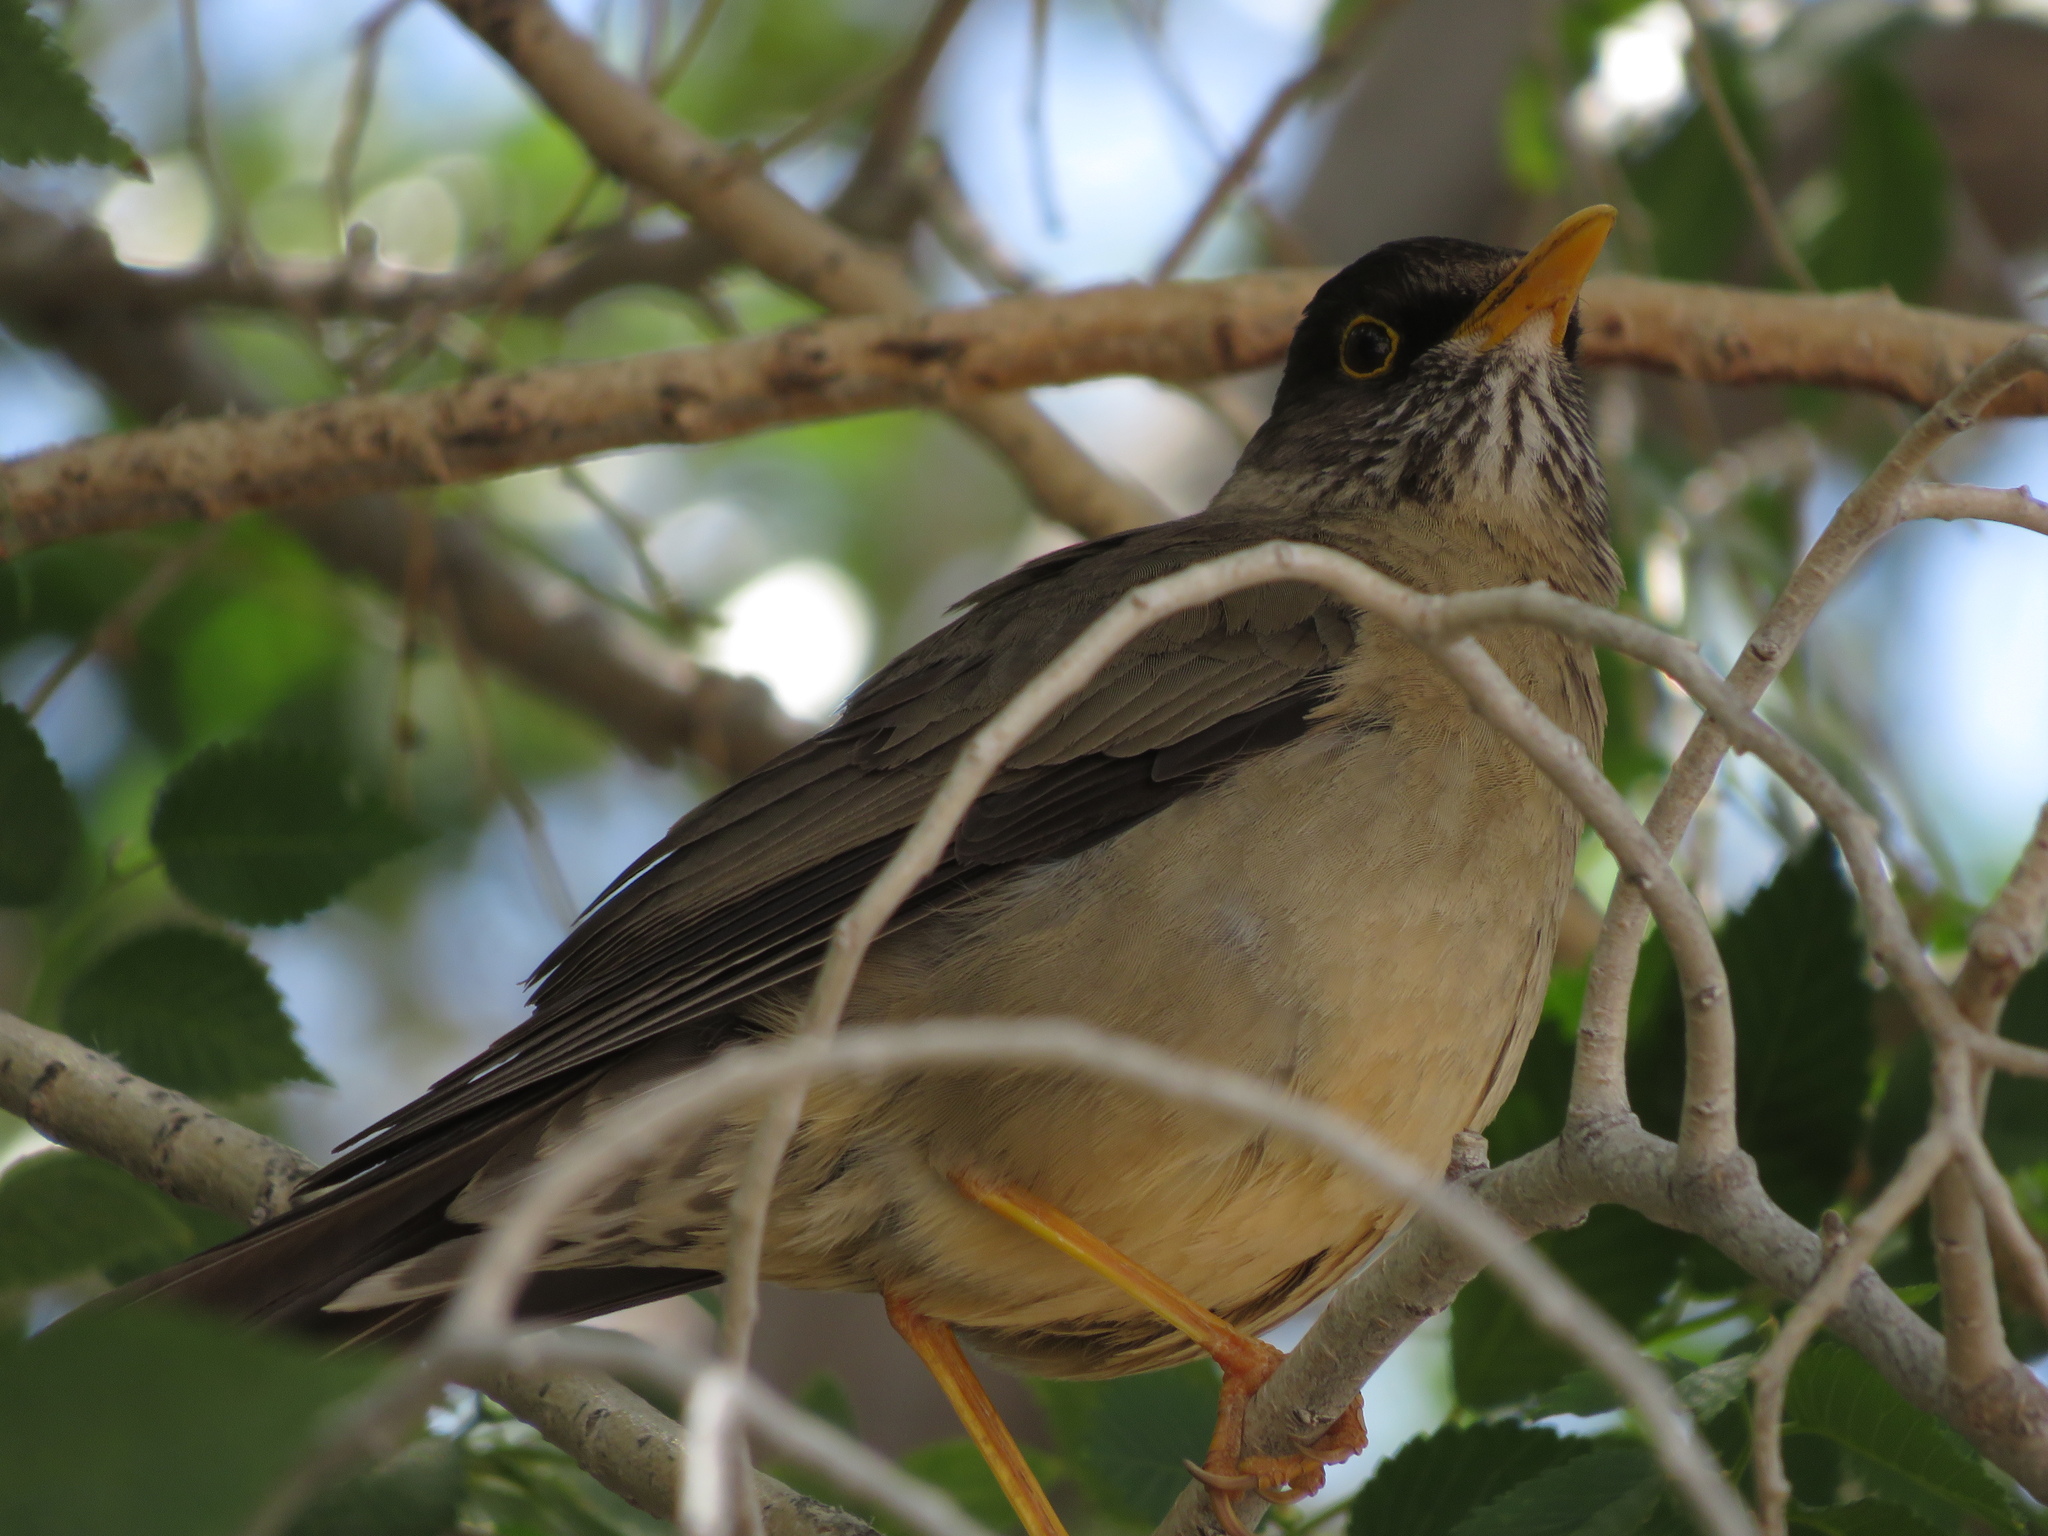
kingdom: Animalia
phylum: Chordata
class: Aves
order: Passeriformes
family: Turdidae
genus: Turdus
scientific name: Turdus falcklandii
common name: Austral thrush
